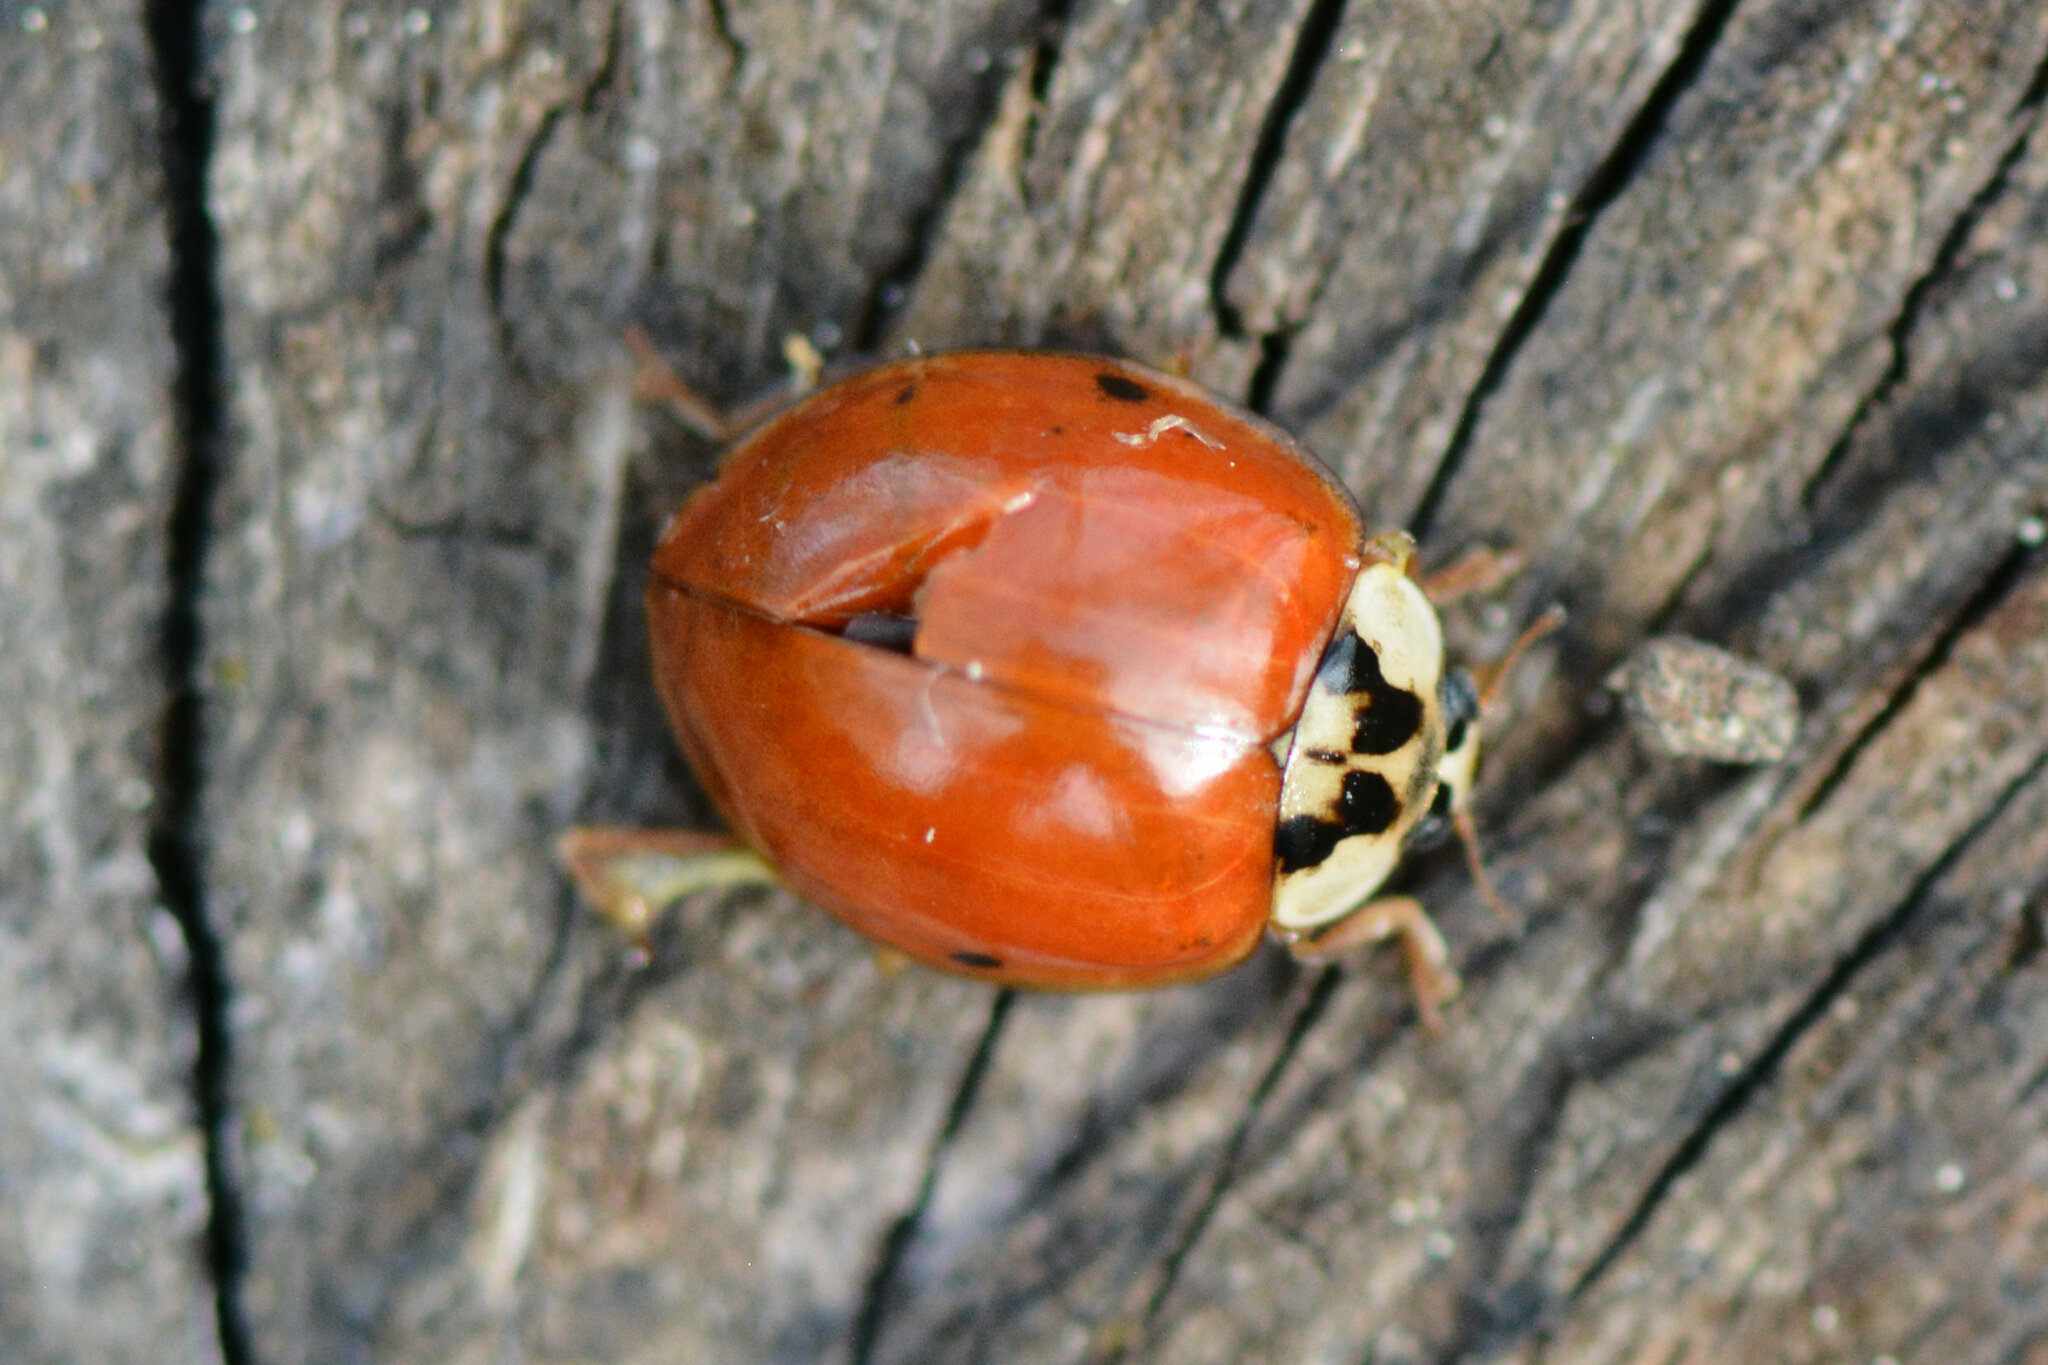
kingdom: Animalia
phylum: Arthropoda
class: Insecta
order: Coleoptera
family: Coccinellidae
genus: Harmonia
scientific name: Harmonia axyridis
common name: Harlequin ladybird
